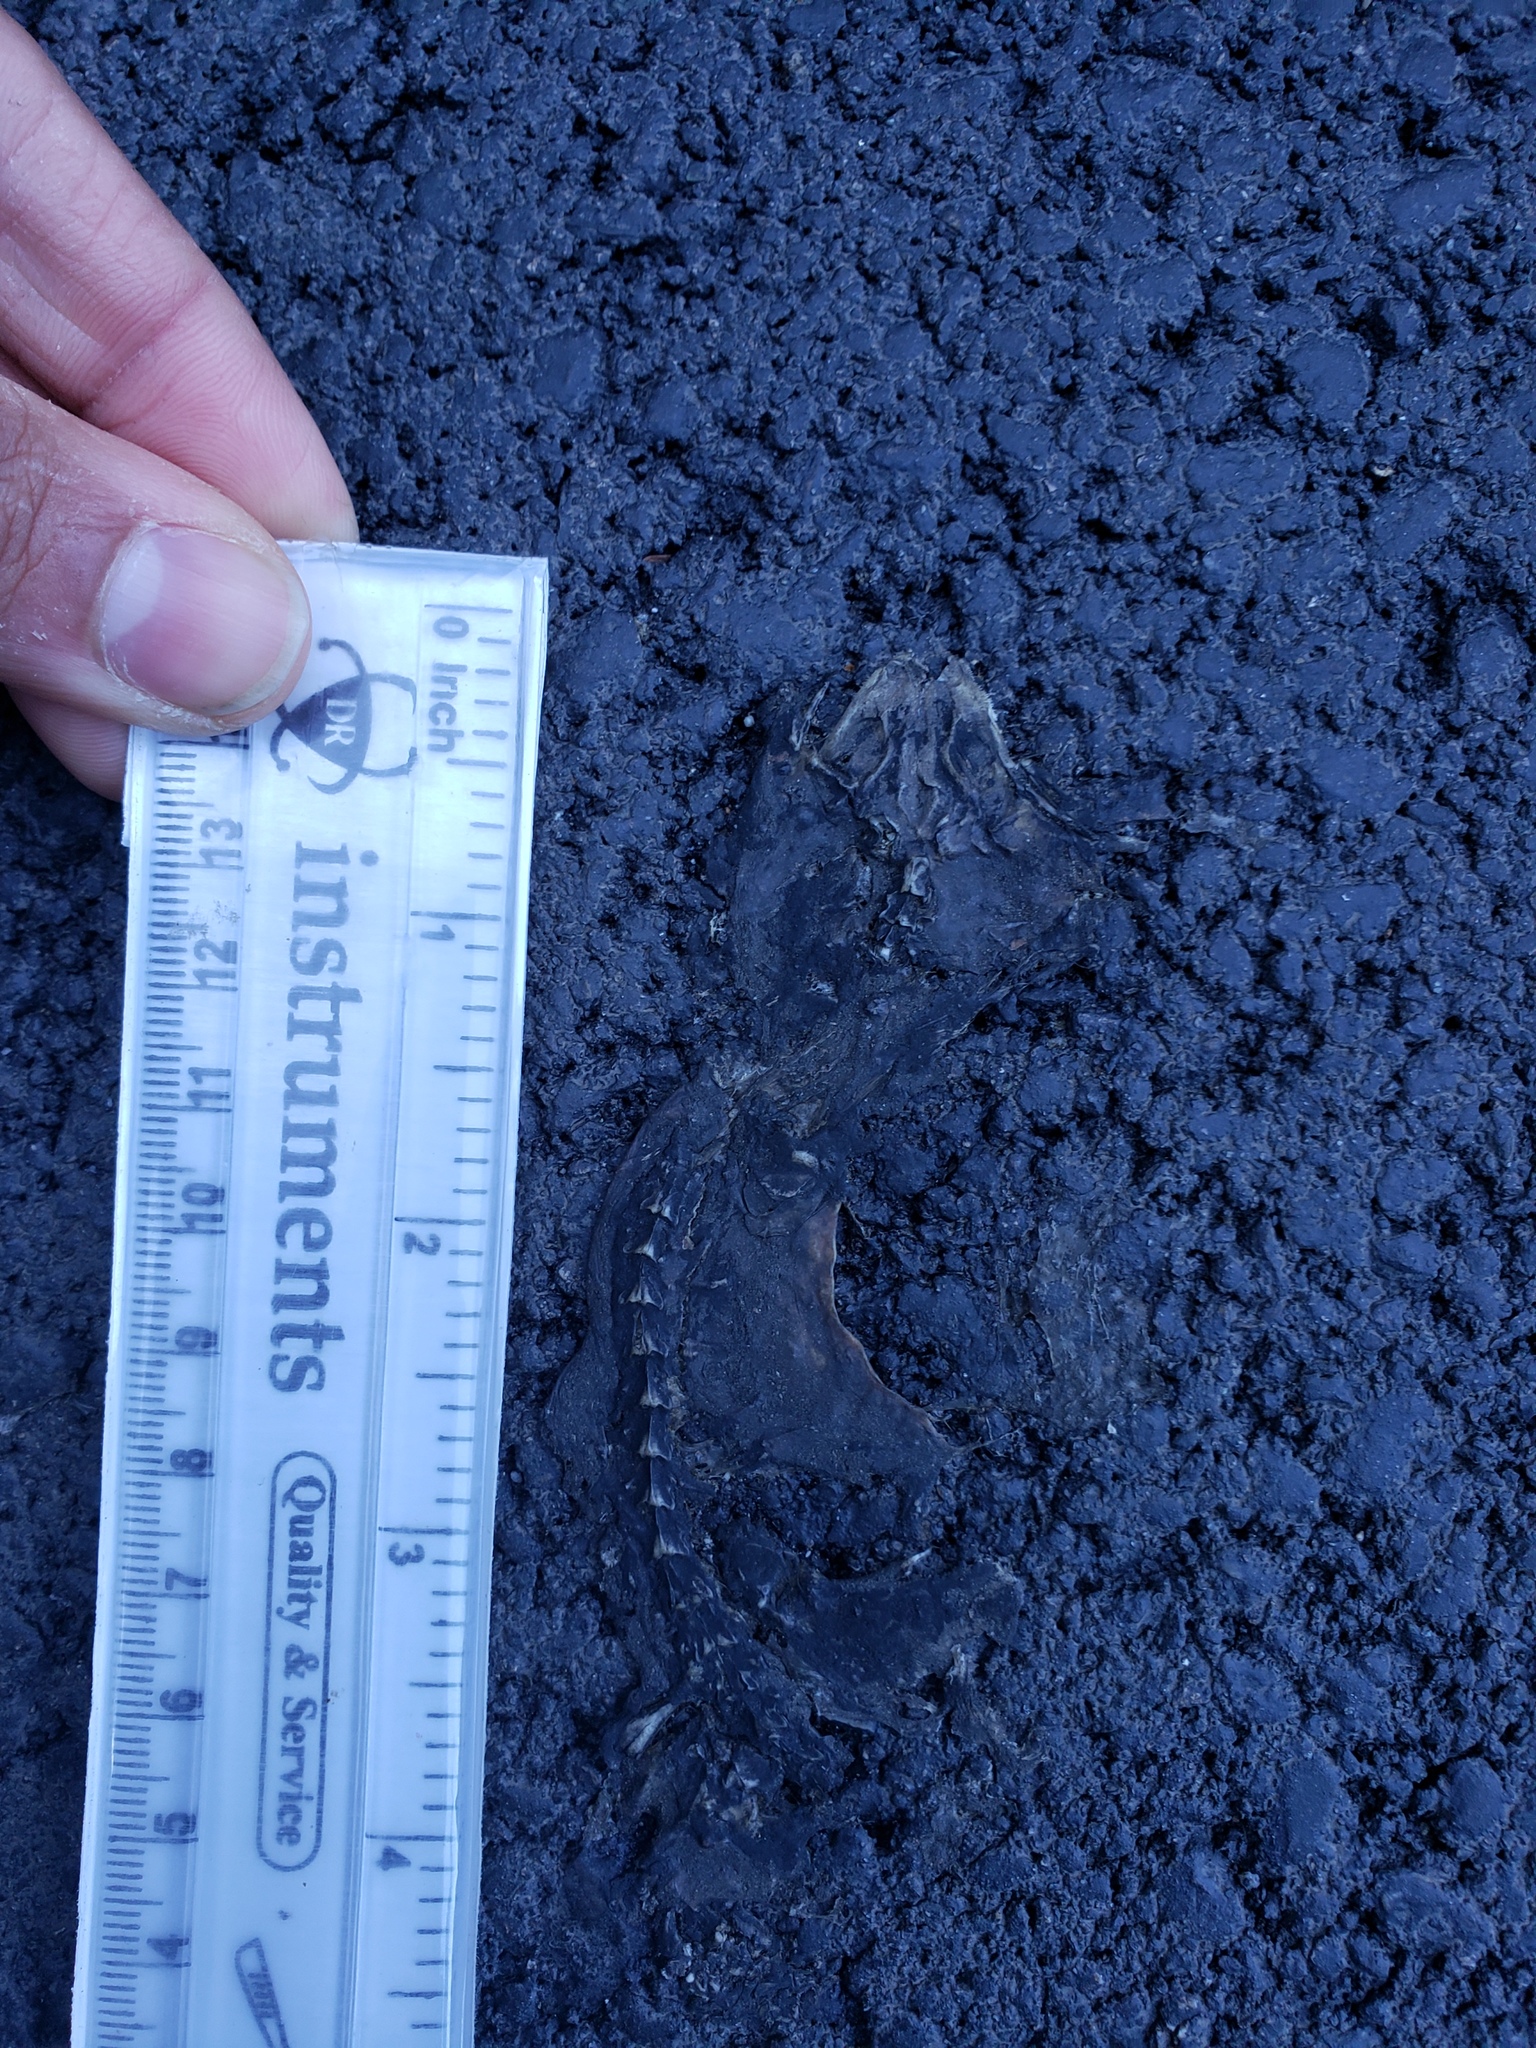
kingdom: Animalia
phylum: Chordata
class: Amphibia
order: Caudata
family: Salamandridae
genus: Taricha
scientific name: Taricha
